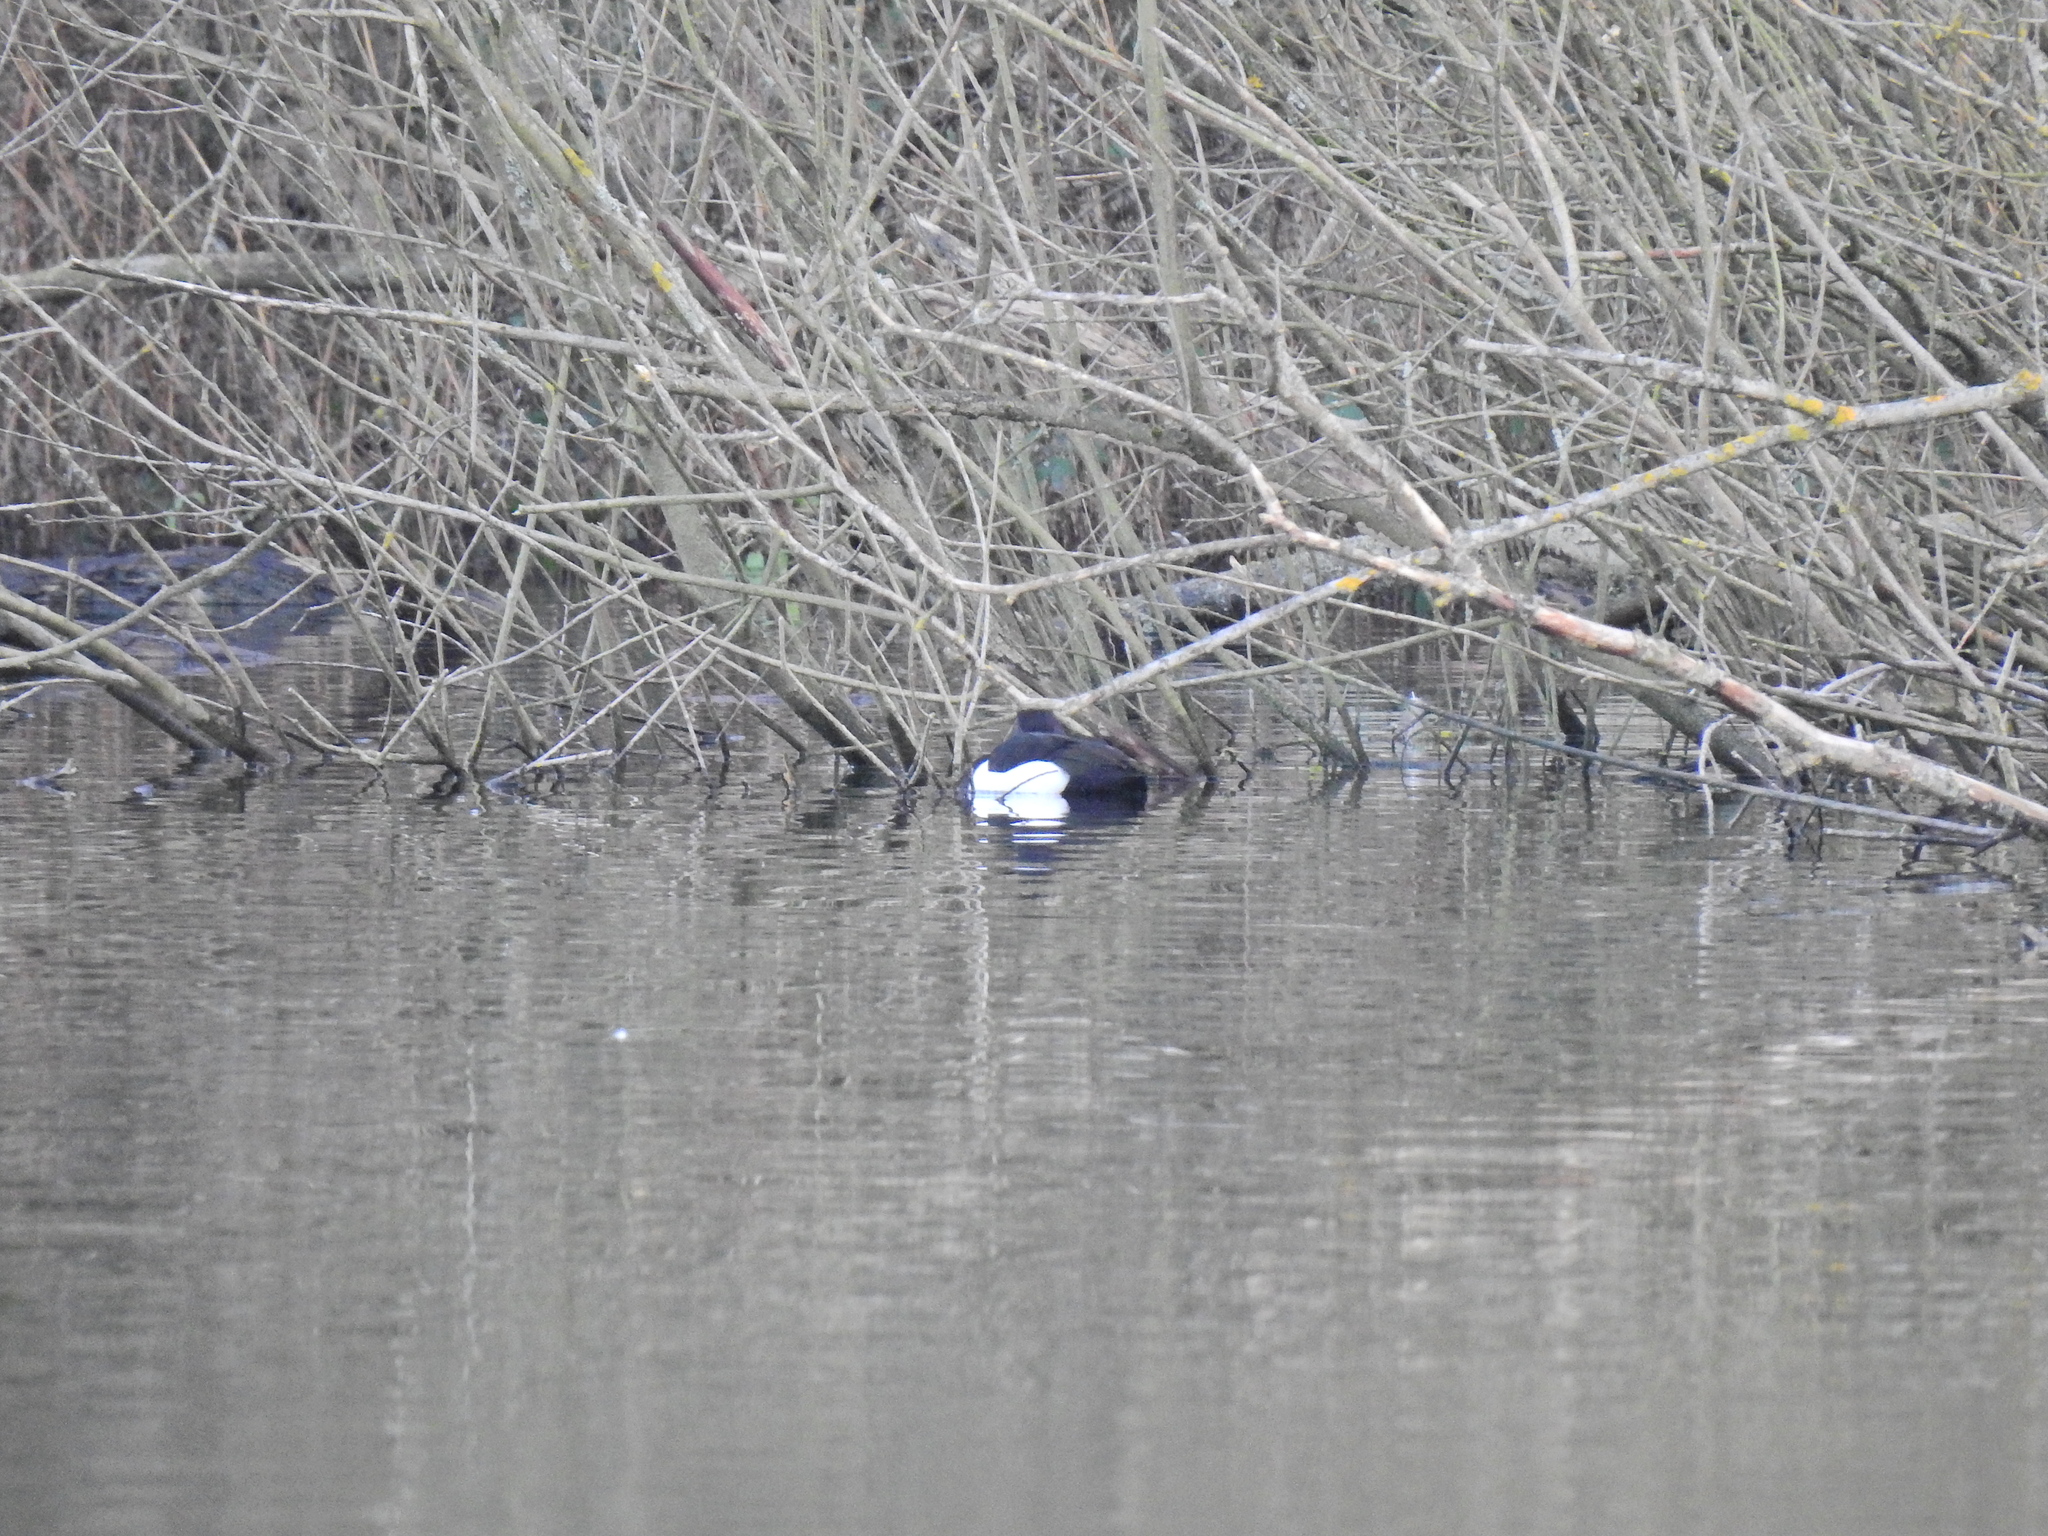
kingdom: Animalia
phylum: Chordata
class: Aves
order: Anseriformes
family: Anatidae
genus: Aythya
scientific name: Aythya fuligula
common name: Tufted duck
